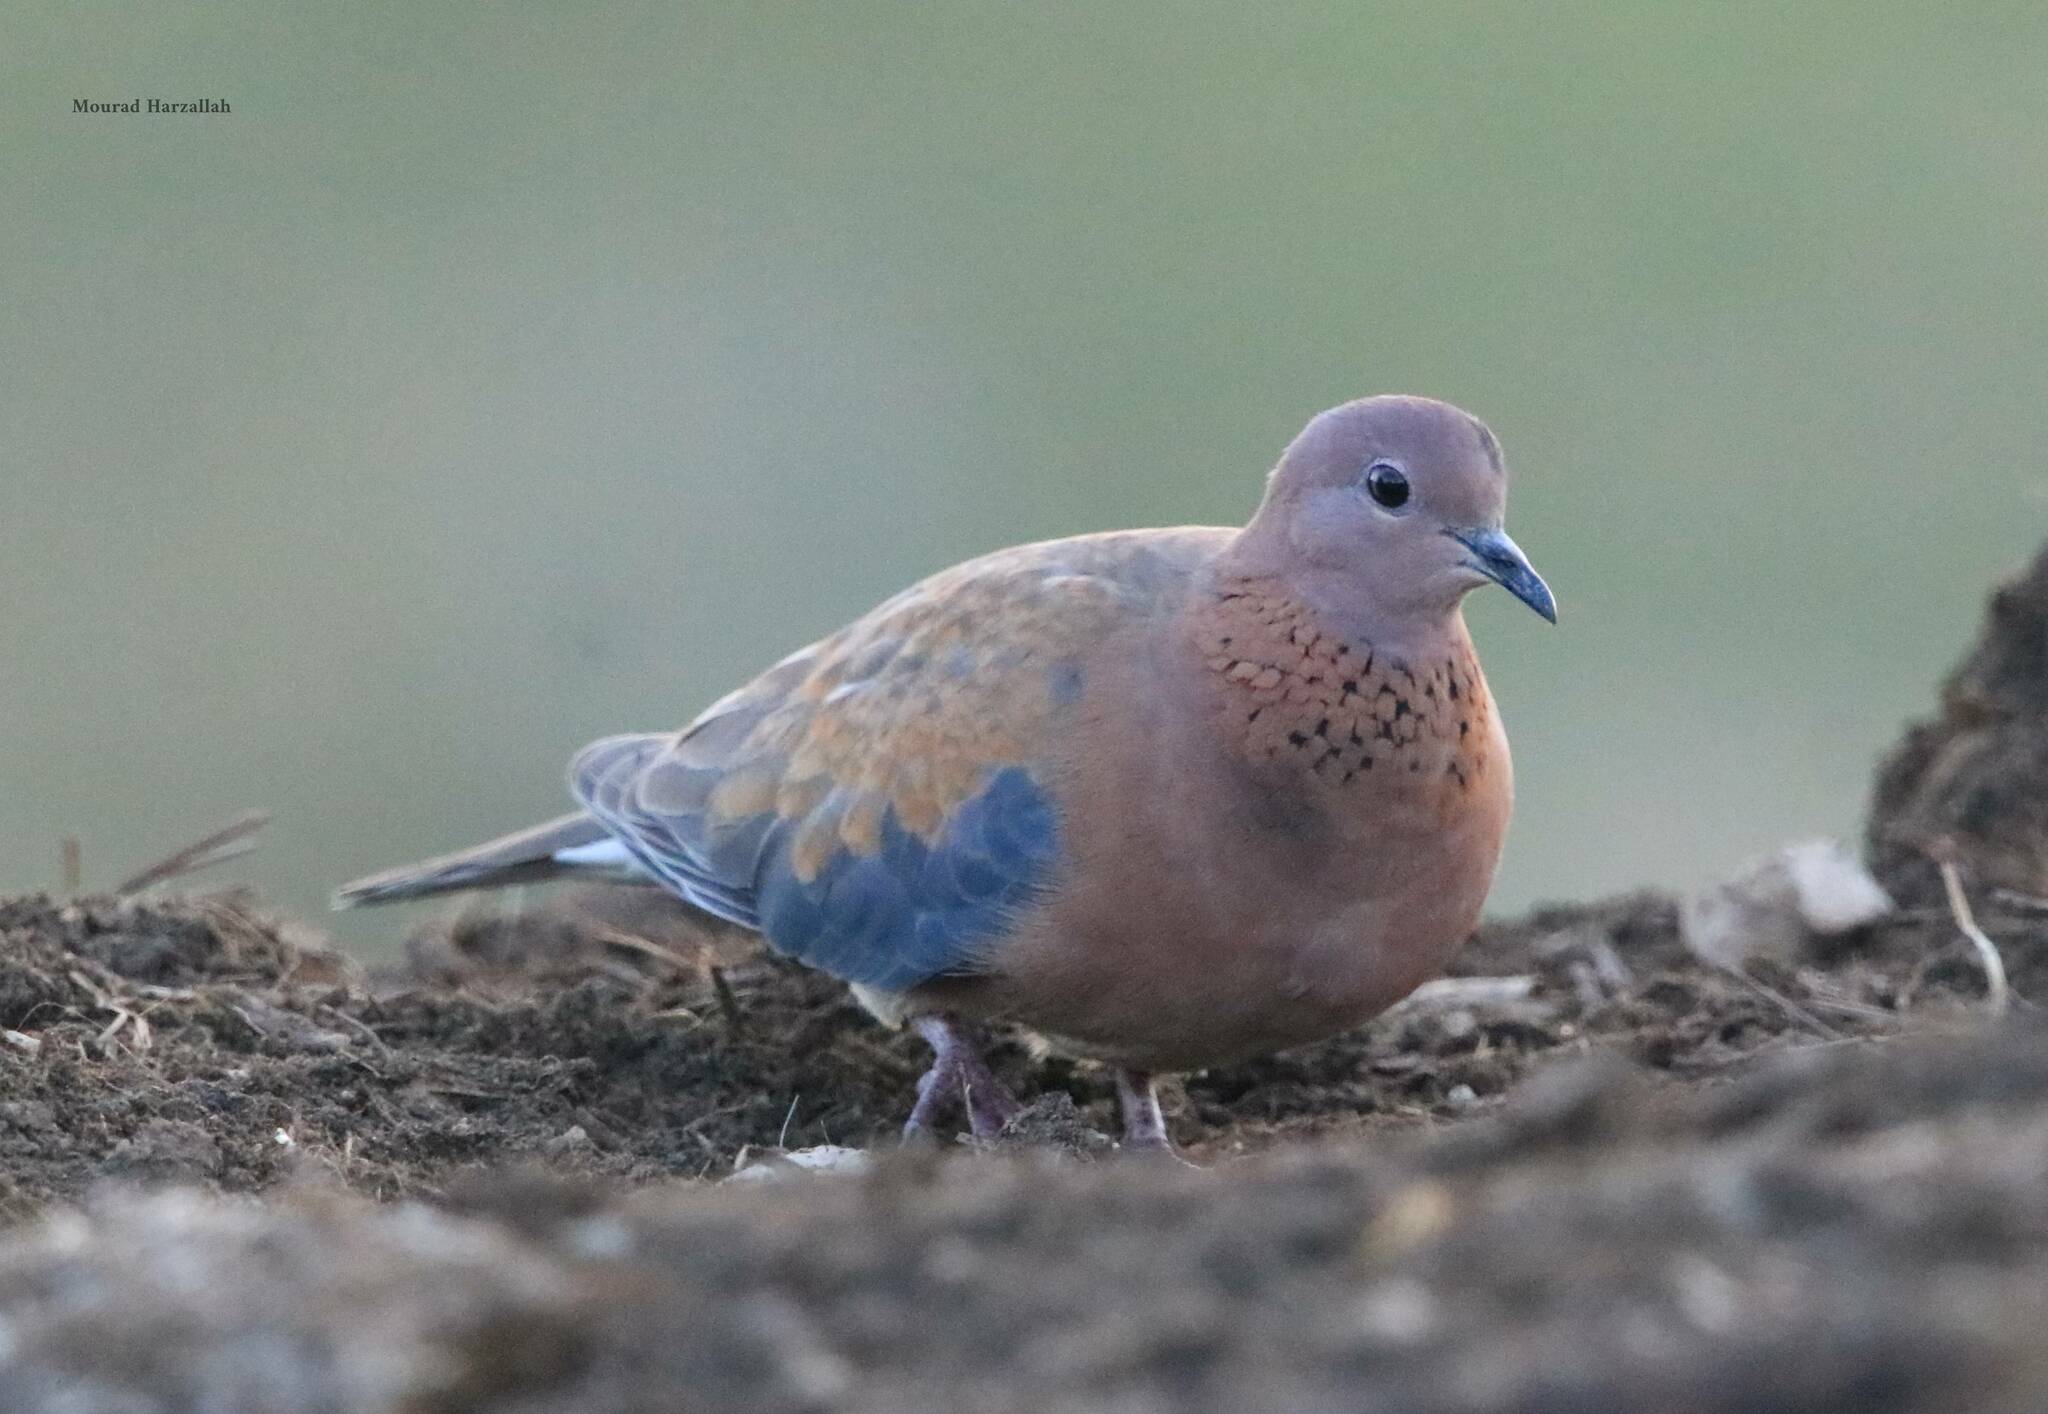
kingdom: Animalia
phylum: Chordata
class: Aves
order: Columbiformes
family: Columbidae
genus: Spilopelia
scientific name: Spilopelia senegalensis
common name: Laughing dove
